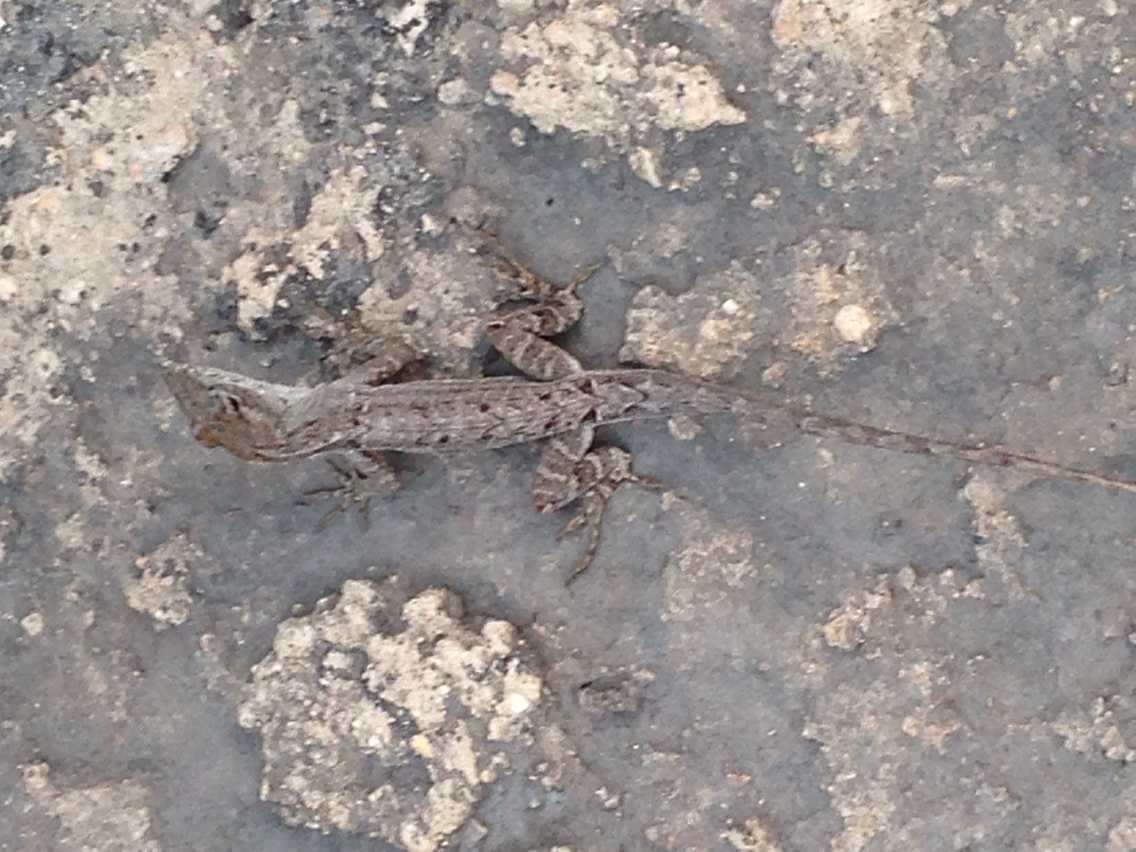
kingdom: Animalia
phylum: Chordata
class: Squamata
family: Dactyloidae
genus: Anolis
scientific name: Anolis sagrei
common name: Brown anole
